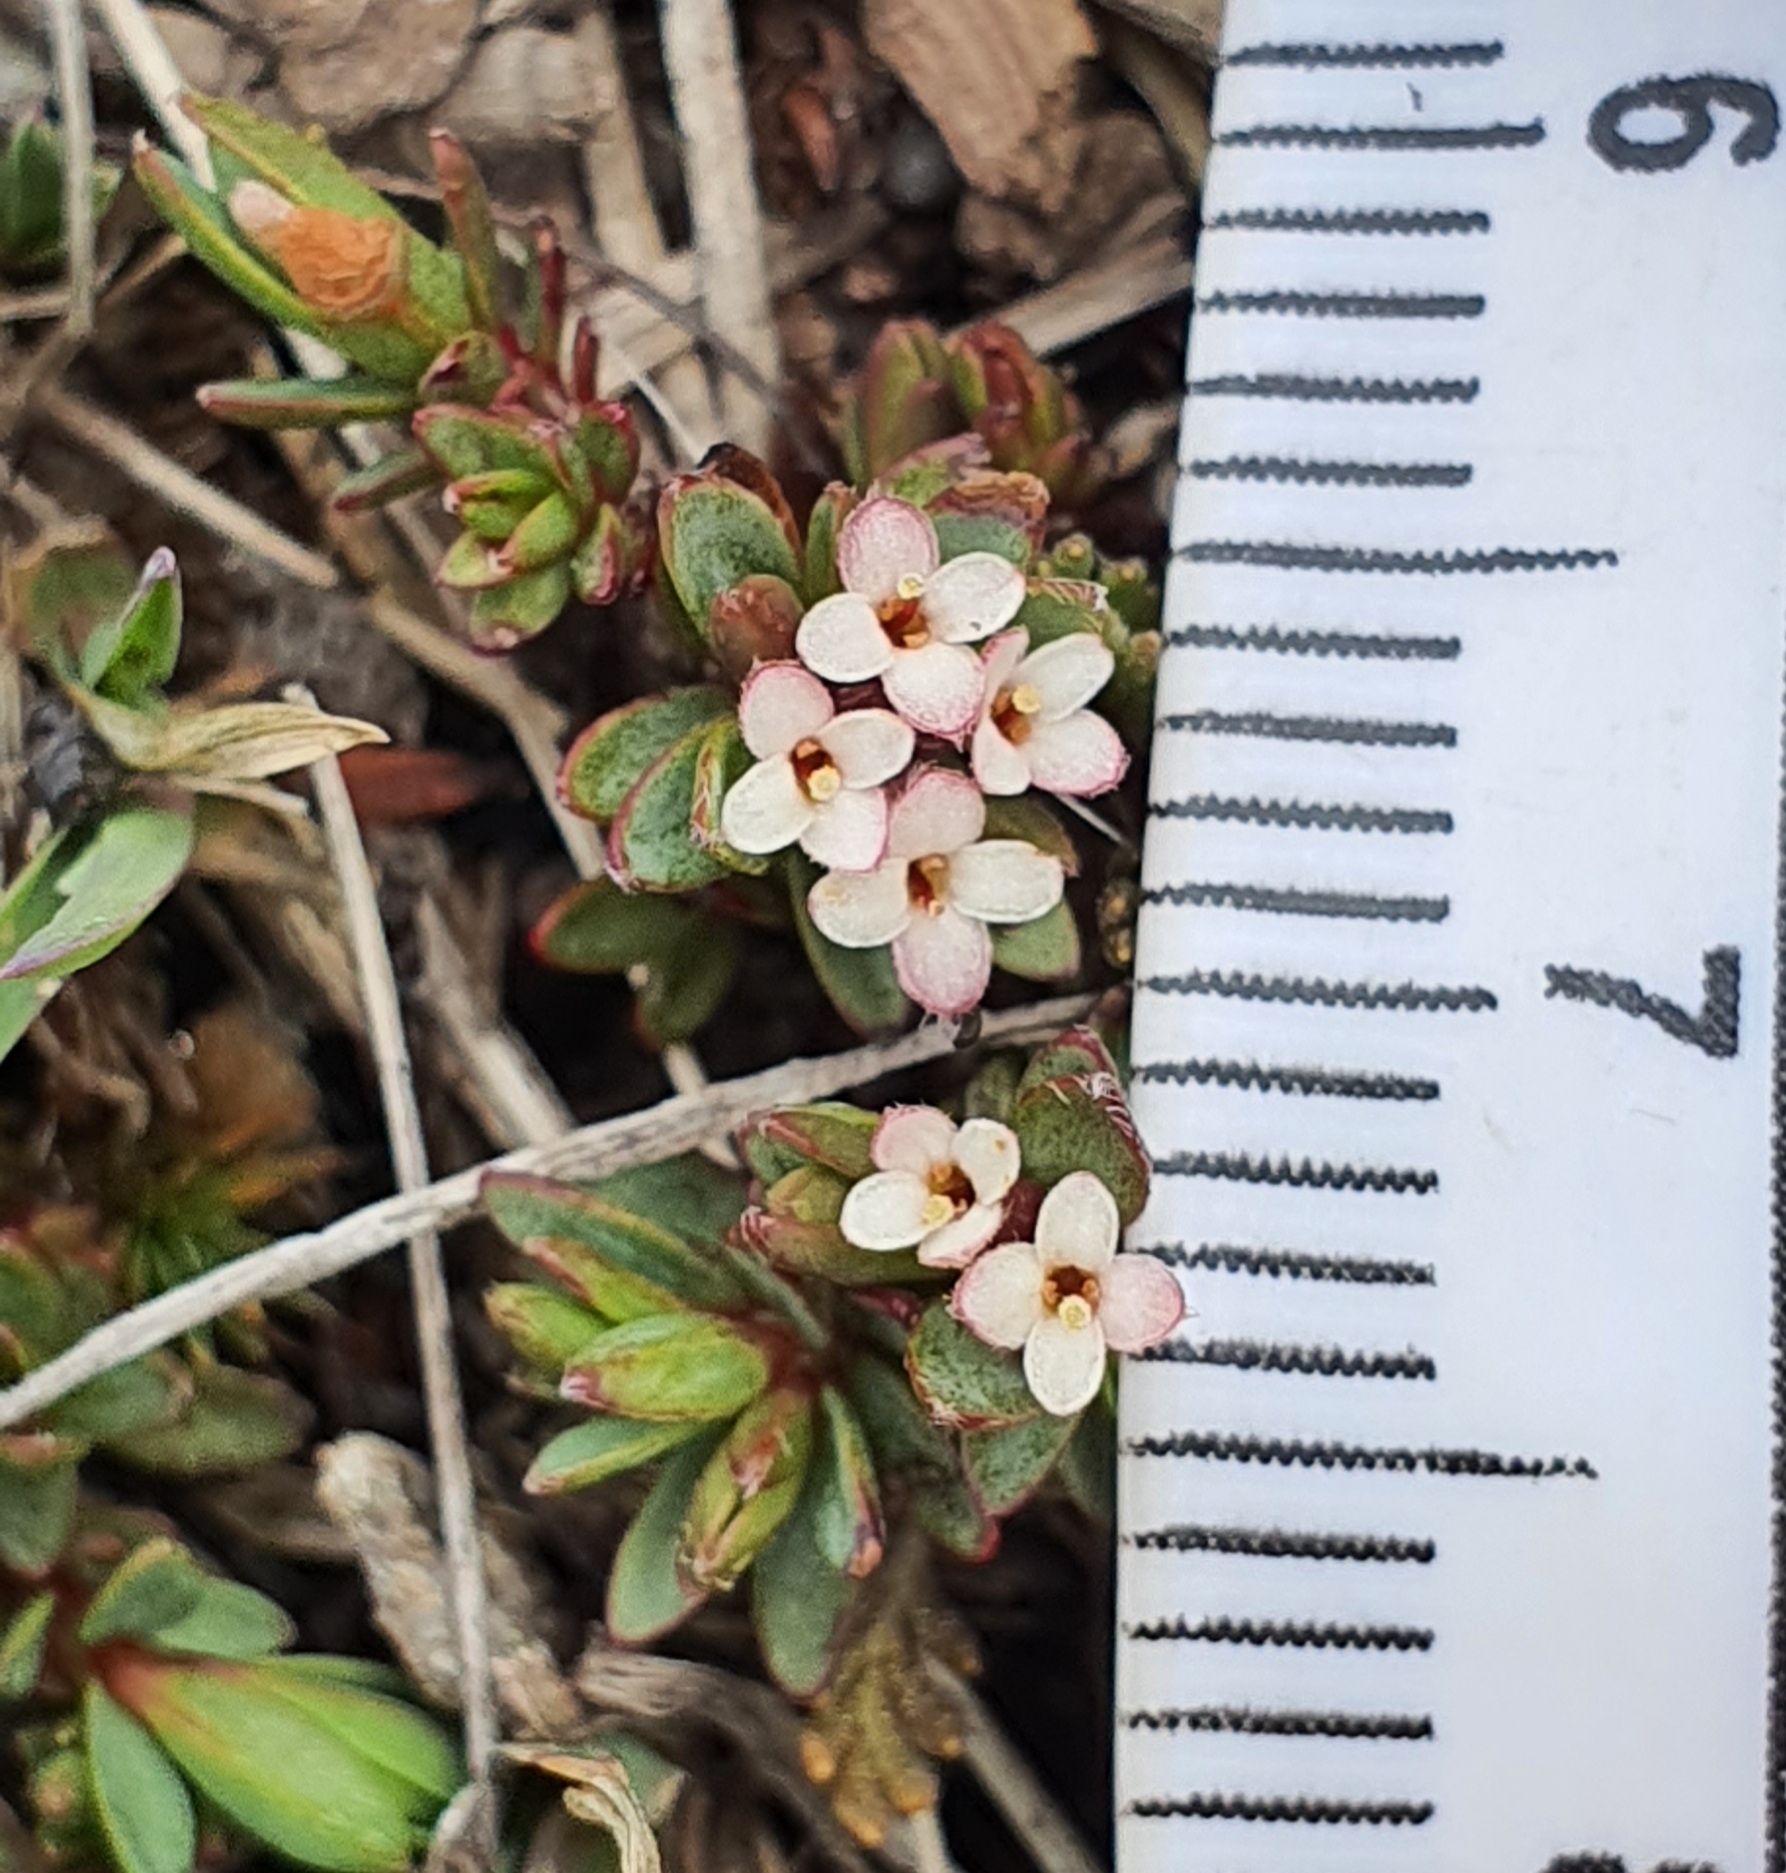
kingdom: Plantae
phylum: Tracheophyta
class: Magnoliopsida
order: Malvales
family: Thymelaeaceae
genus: Pimelea
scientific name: Pimelea notia
